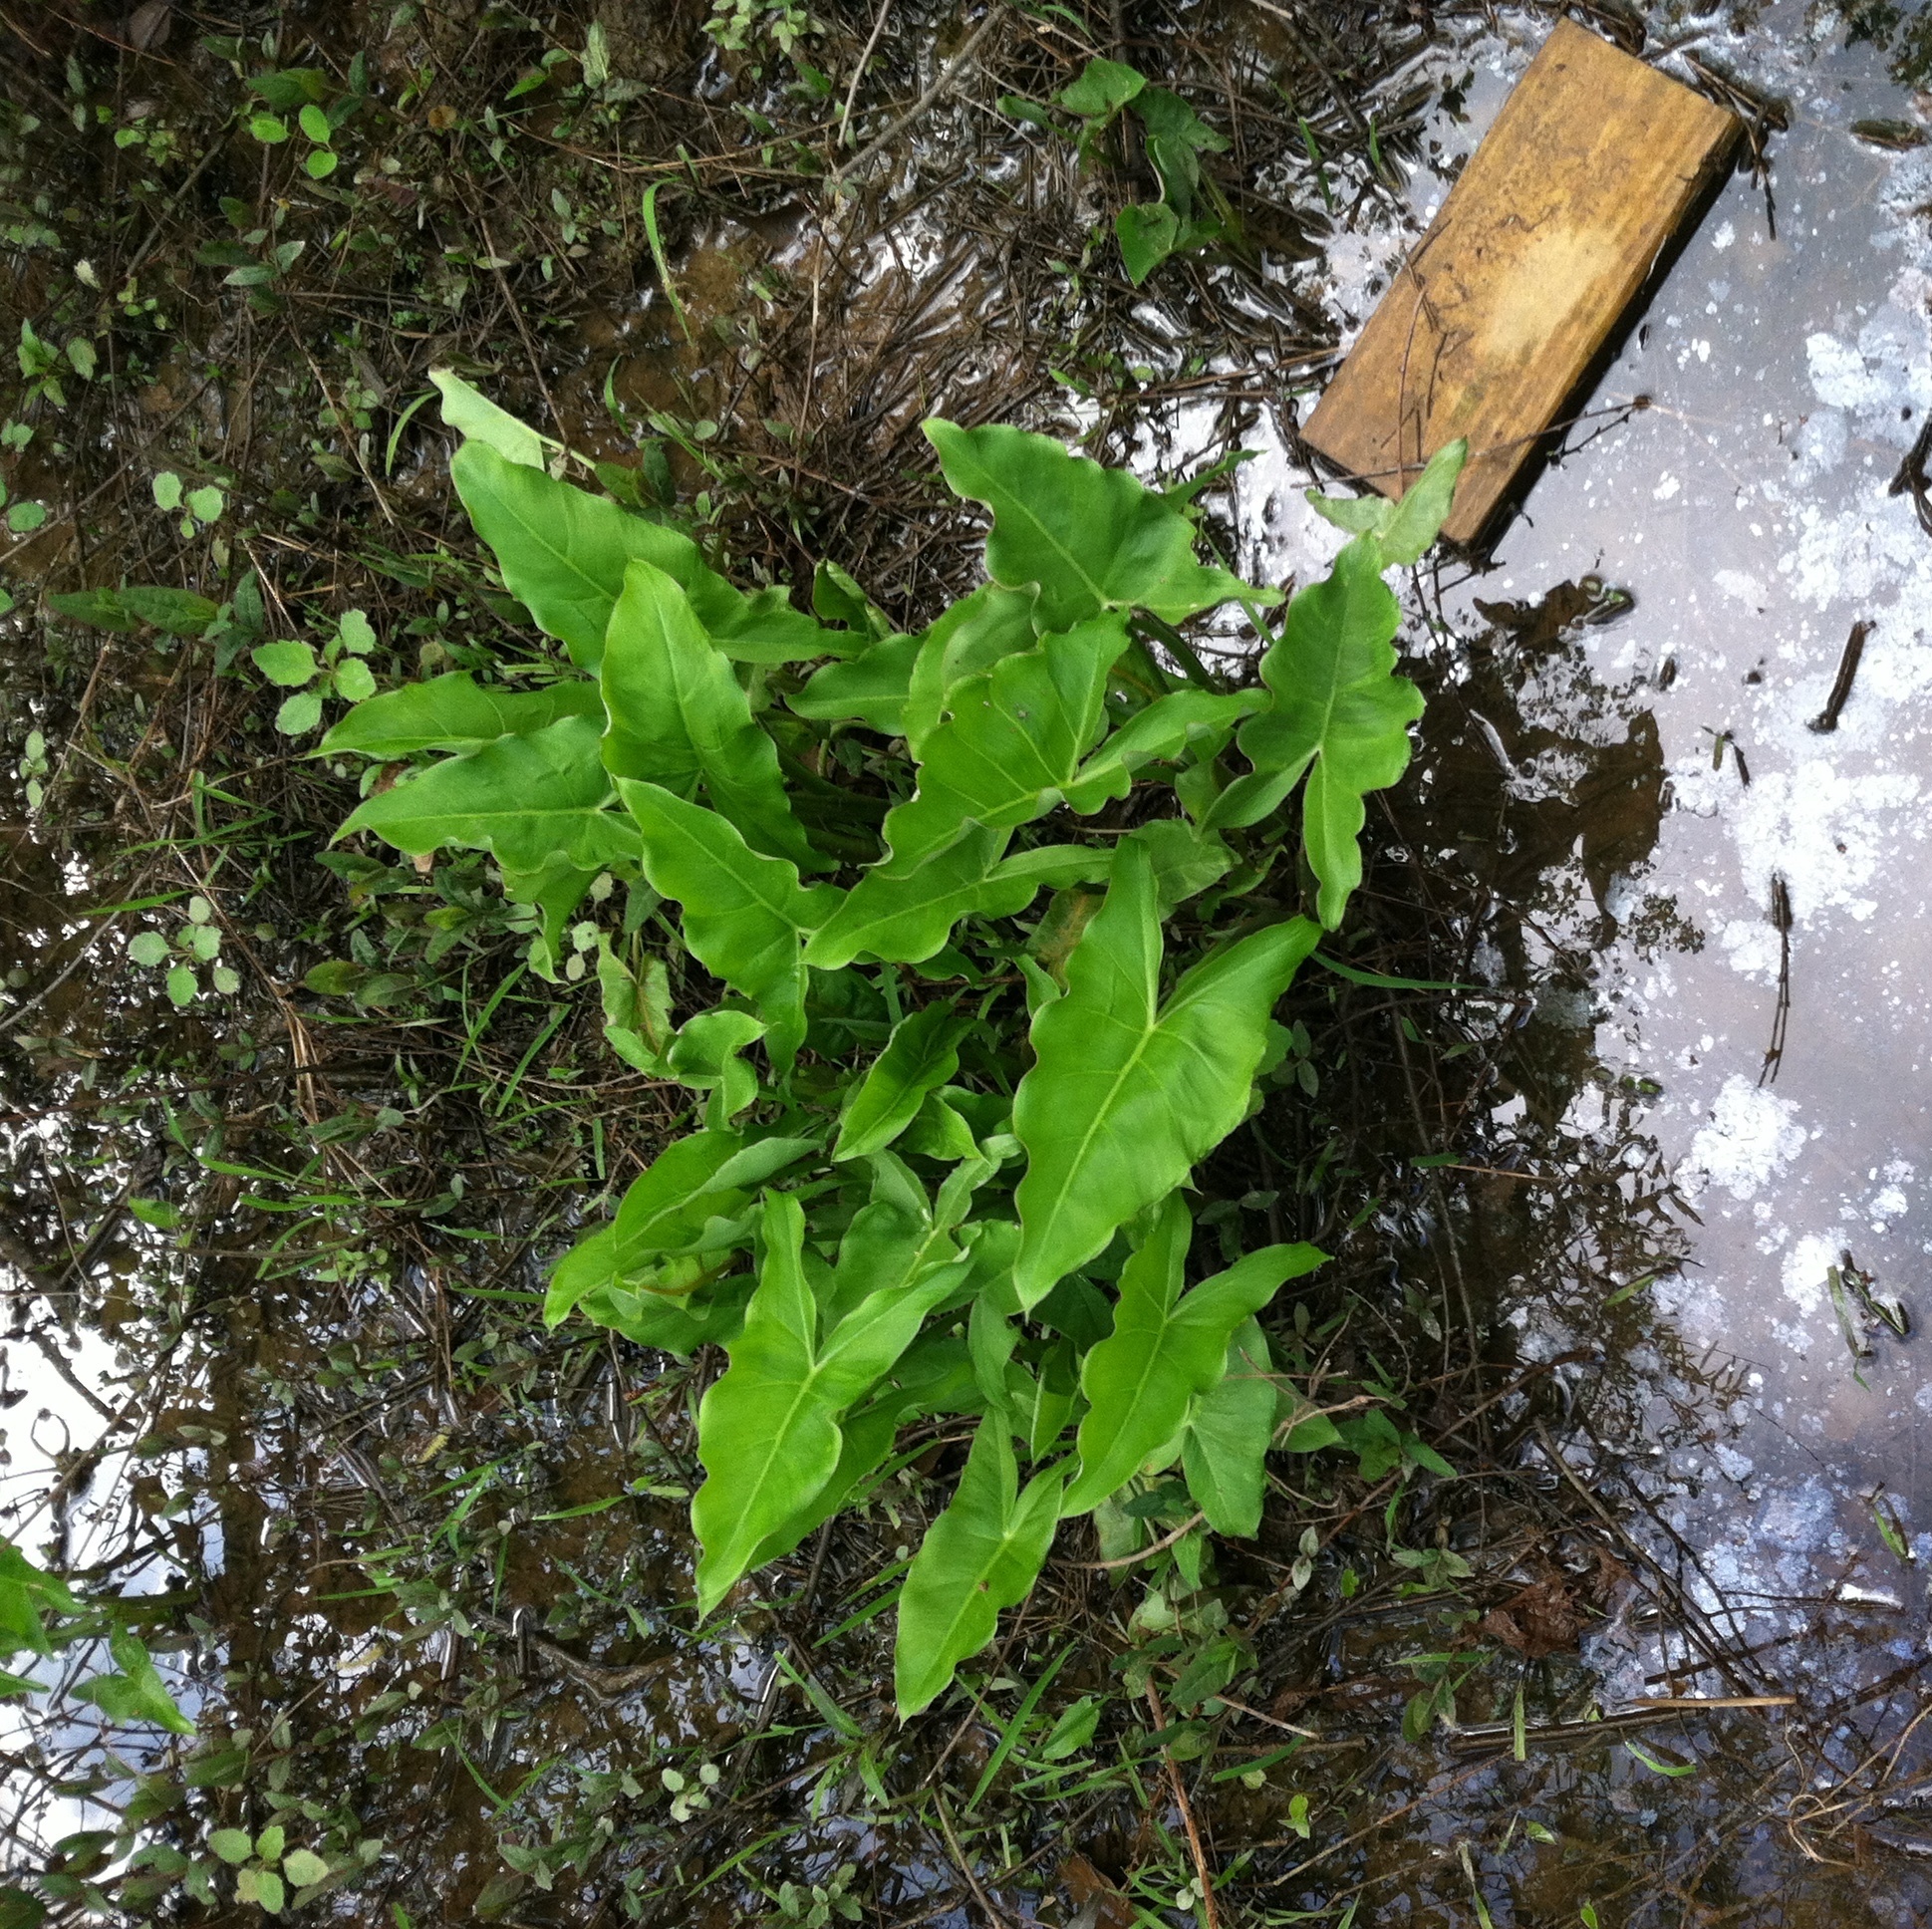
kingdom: Plantae
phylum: Tracheophyta
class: Liliopsida
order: Alismatales
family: Araceae
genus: Peltandra
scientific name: Peltandra virginica
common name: Arrow arum
